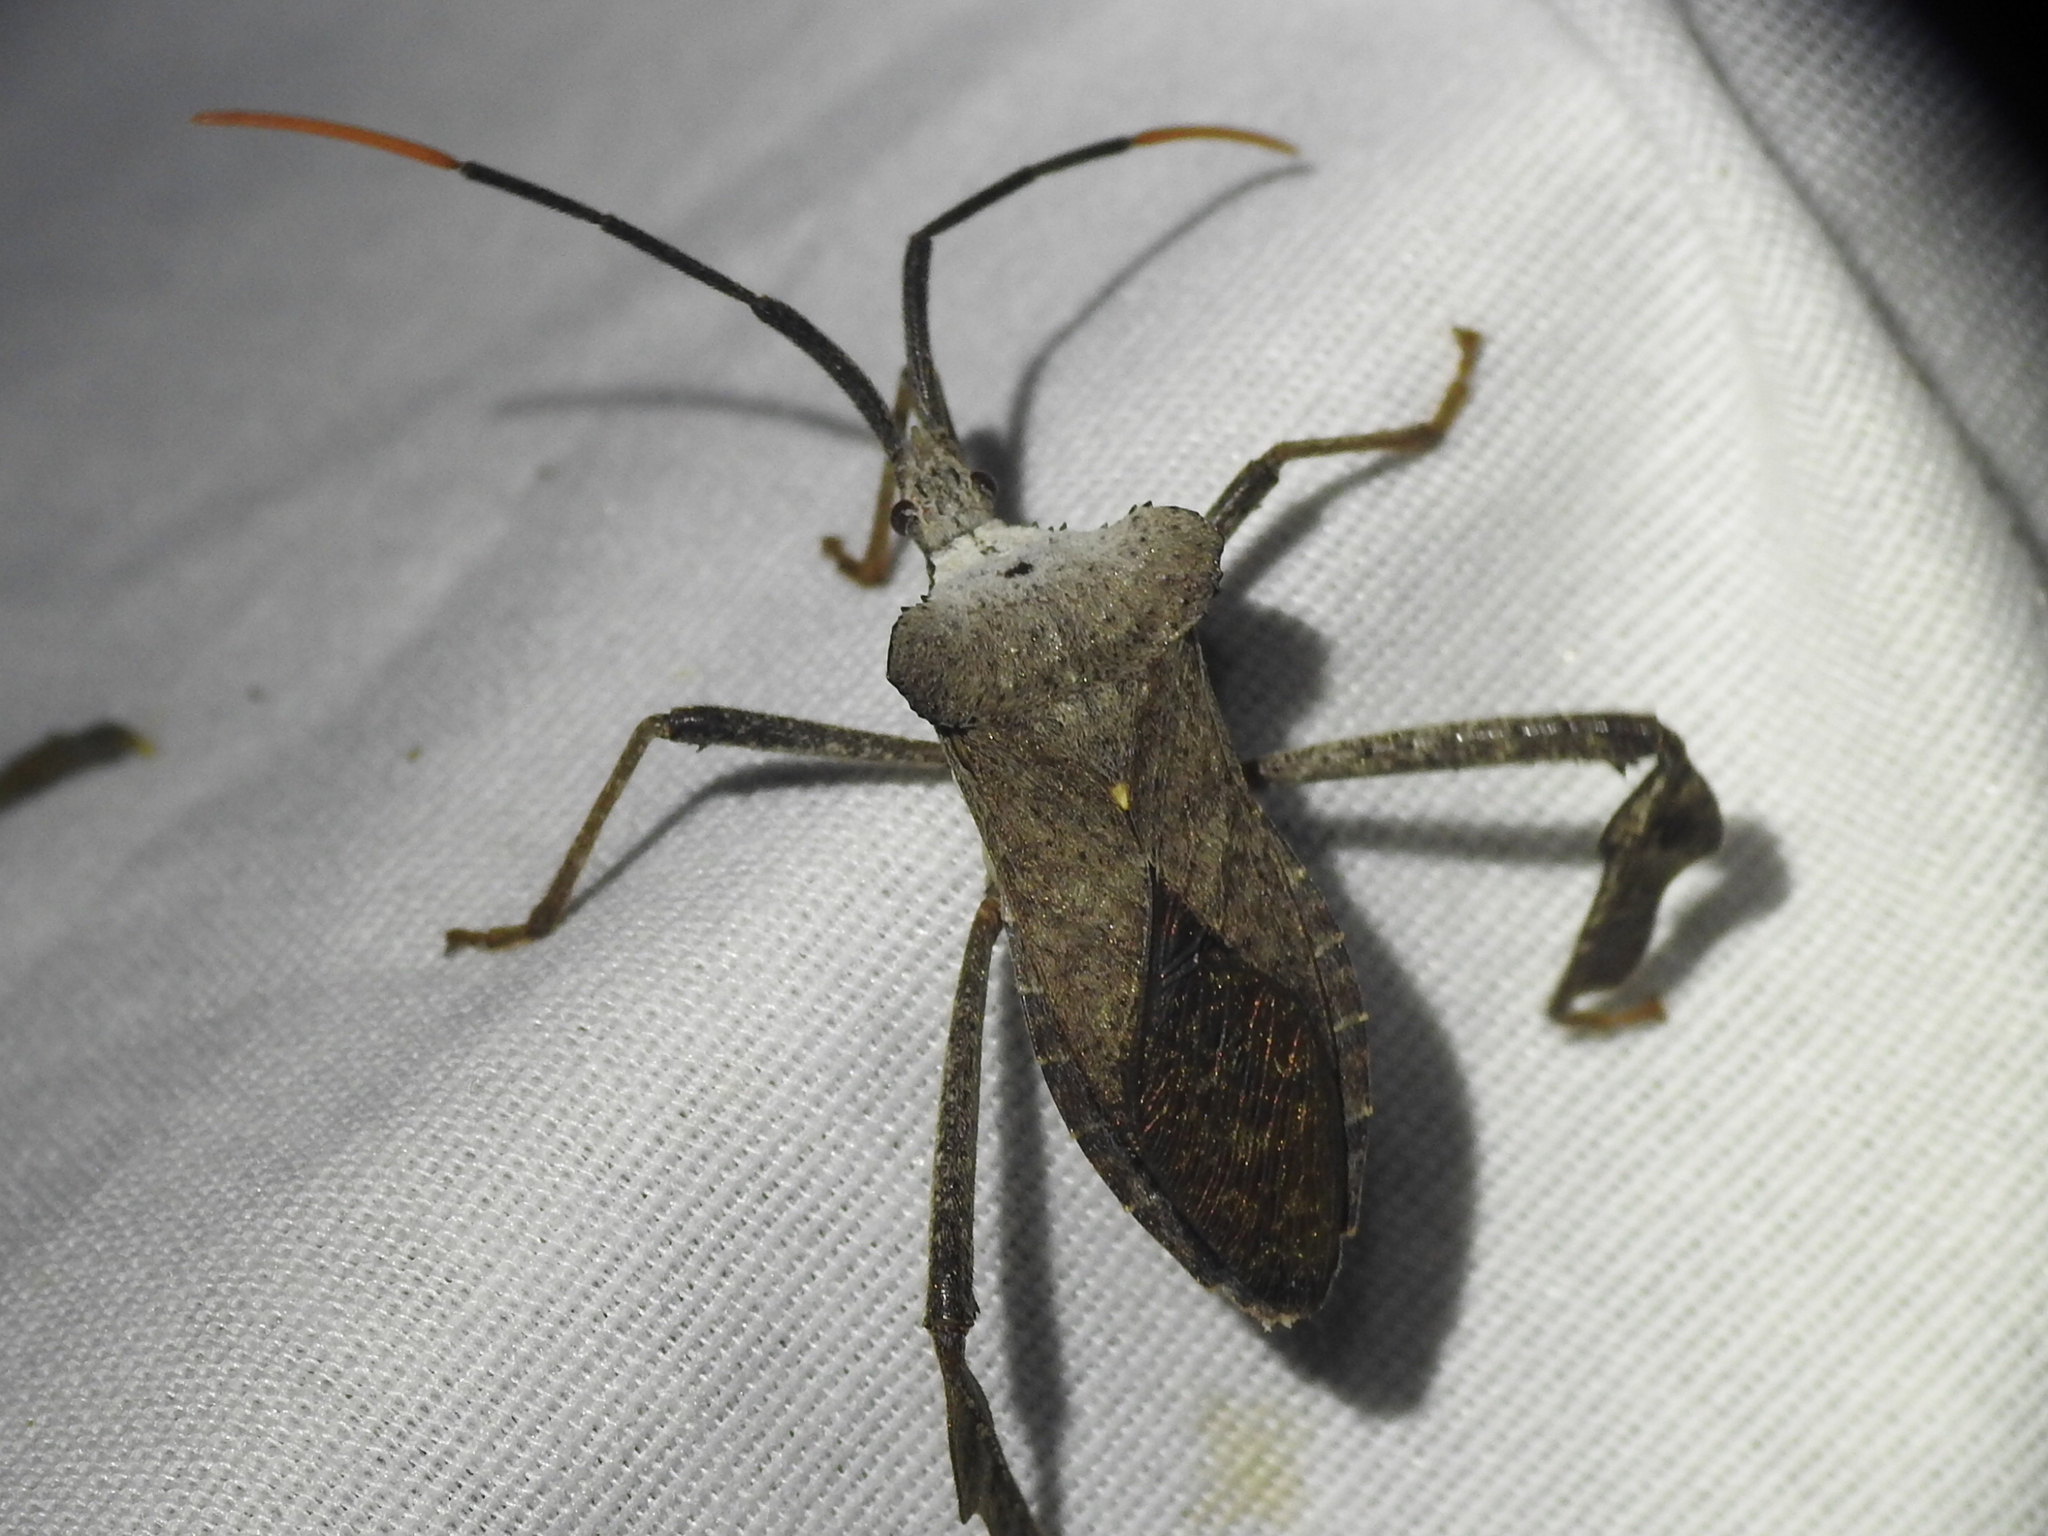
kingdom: Animalia
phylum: Arthropoda
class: Insecta
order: Hemiptera
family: Coreidae
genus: Acanthocephala
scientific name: Acanthocephala alata
